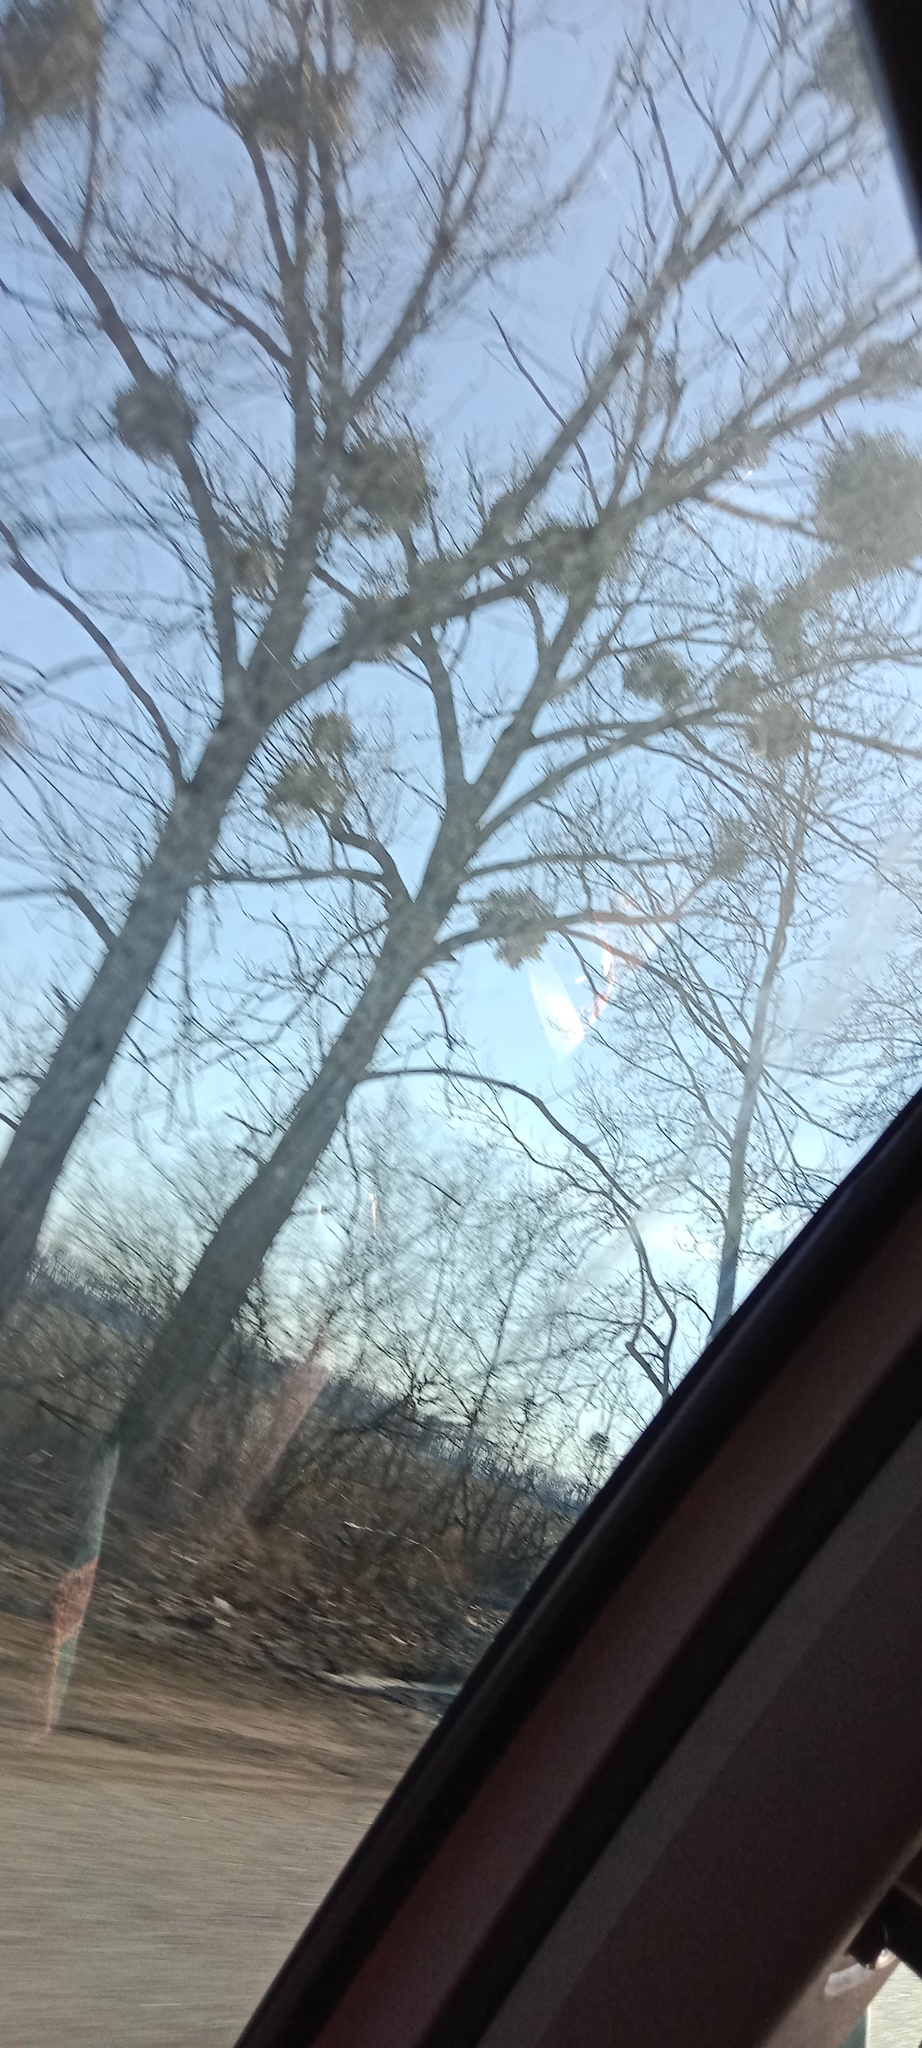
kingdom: Plantae
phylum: Tracheophyta
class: Magnoliopsida
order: Santalales
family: Viscaceae
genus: Viscum
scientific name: Viscum album
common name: Mistletoe
